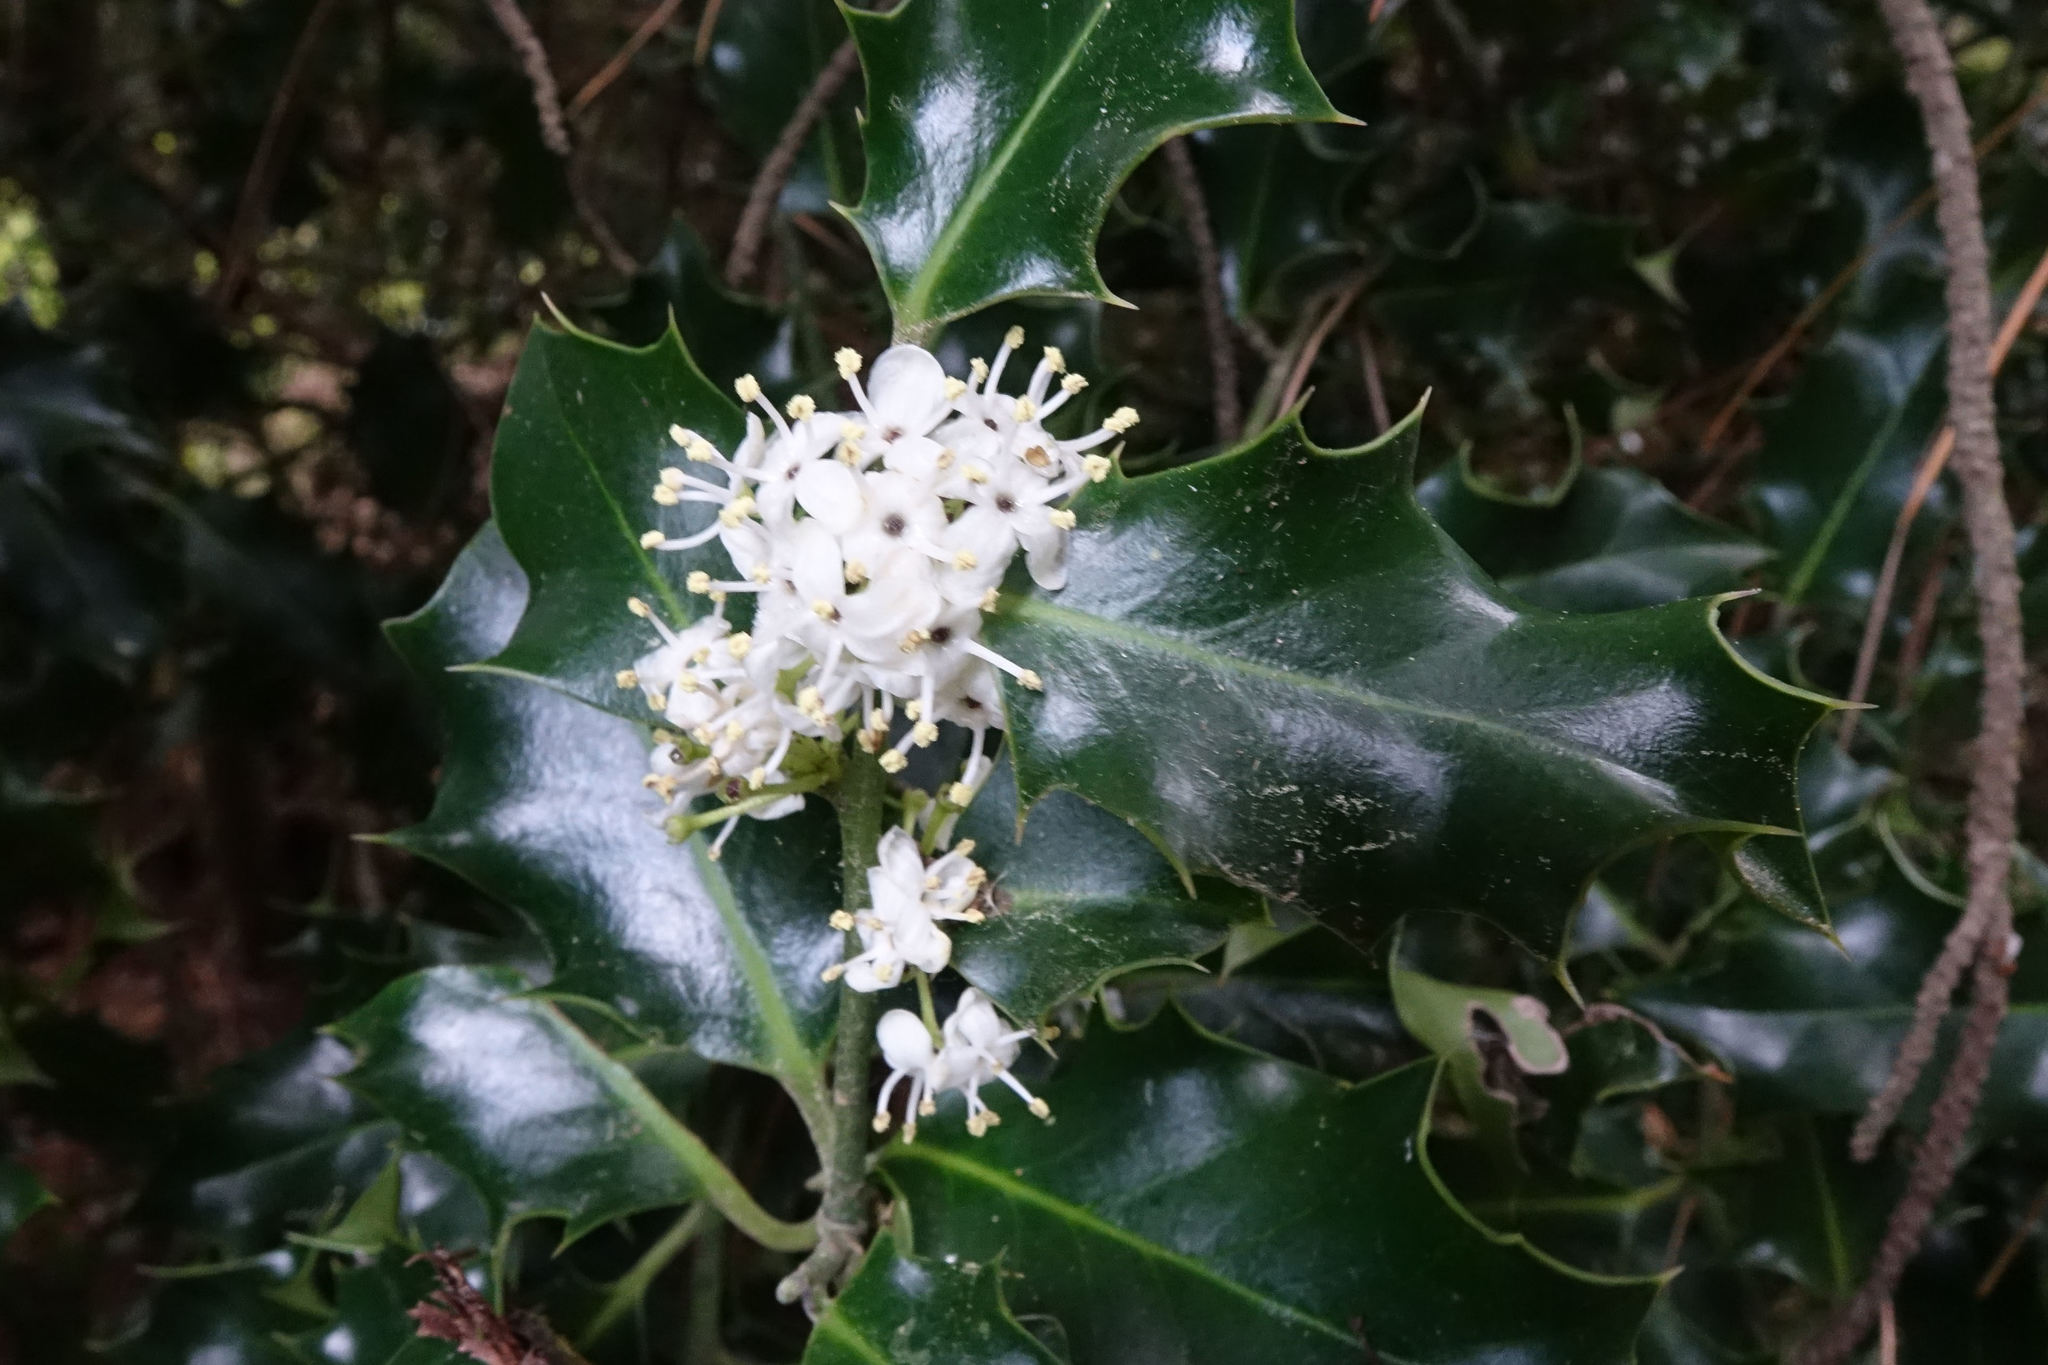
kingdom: Plantae
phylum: Tracheophyta
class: Magnoliopsida
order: Aquifoliales
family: Aquifoliaceae
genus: Ilex
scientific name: Ilex aquifolium
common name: English holly
